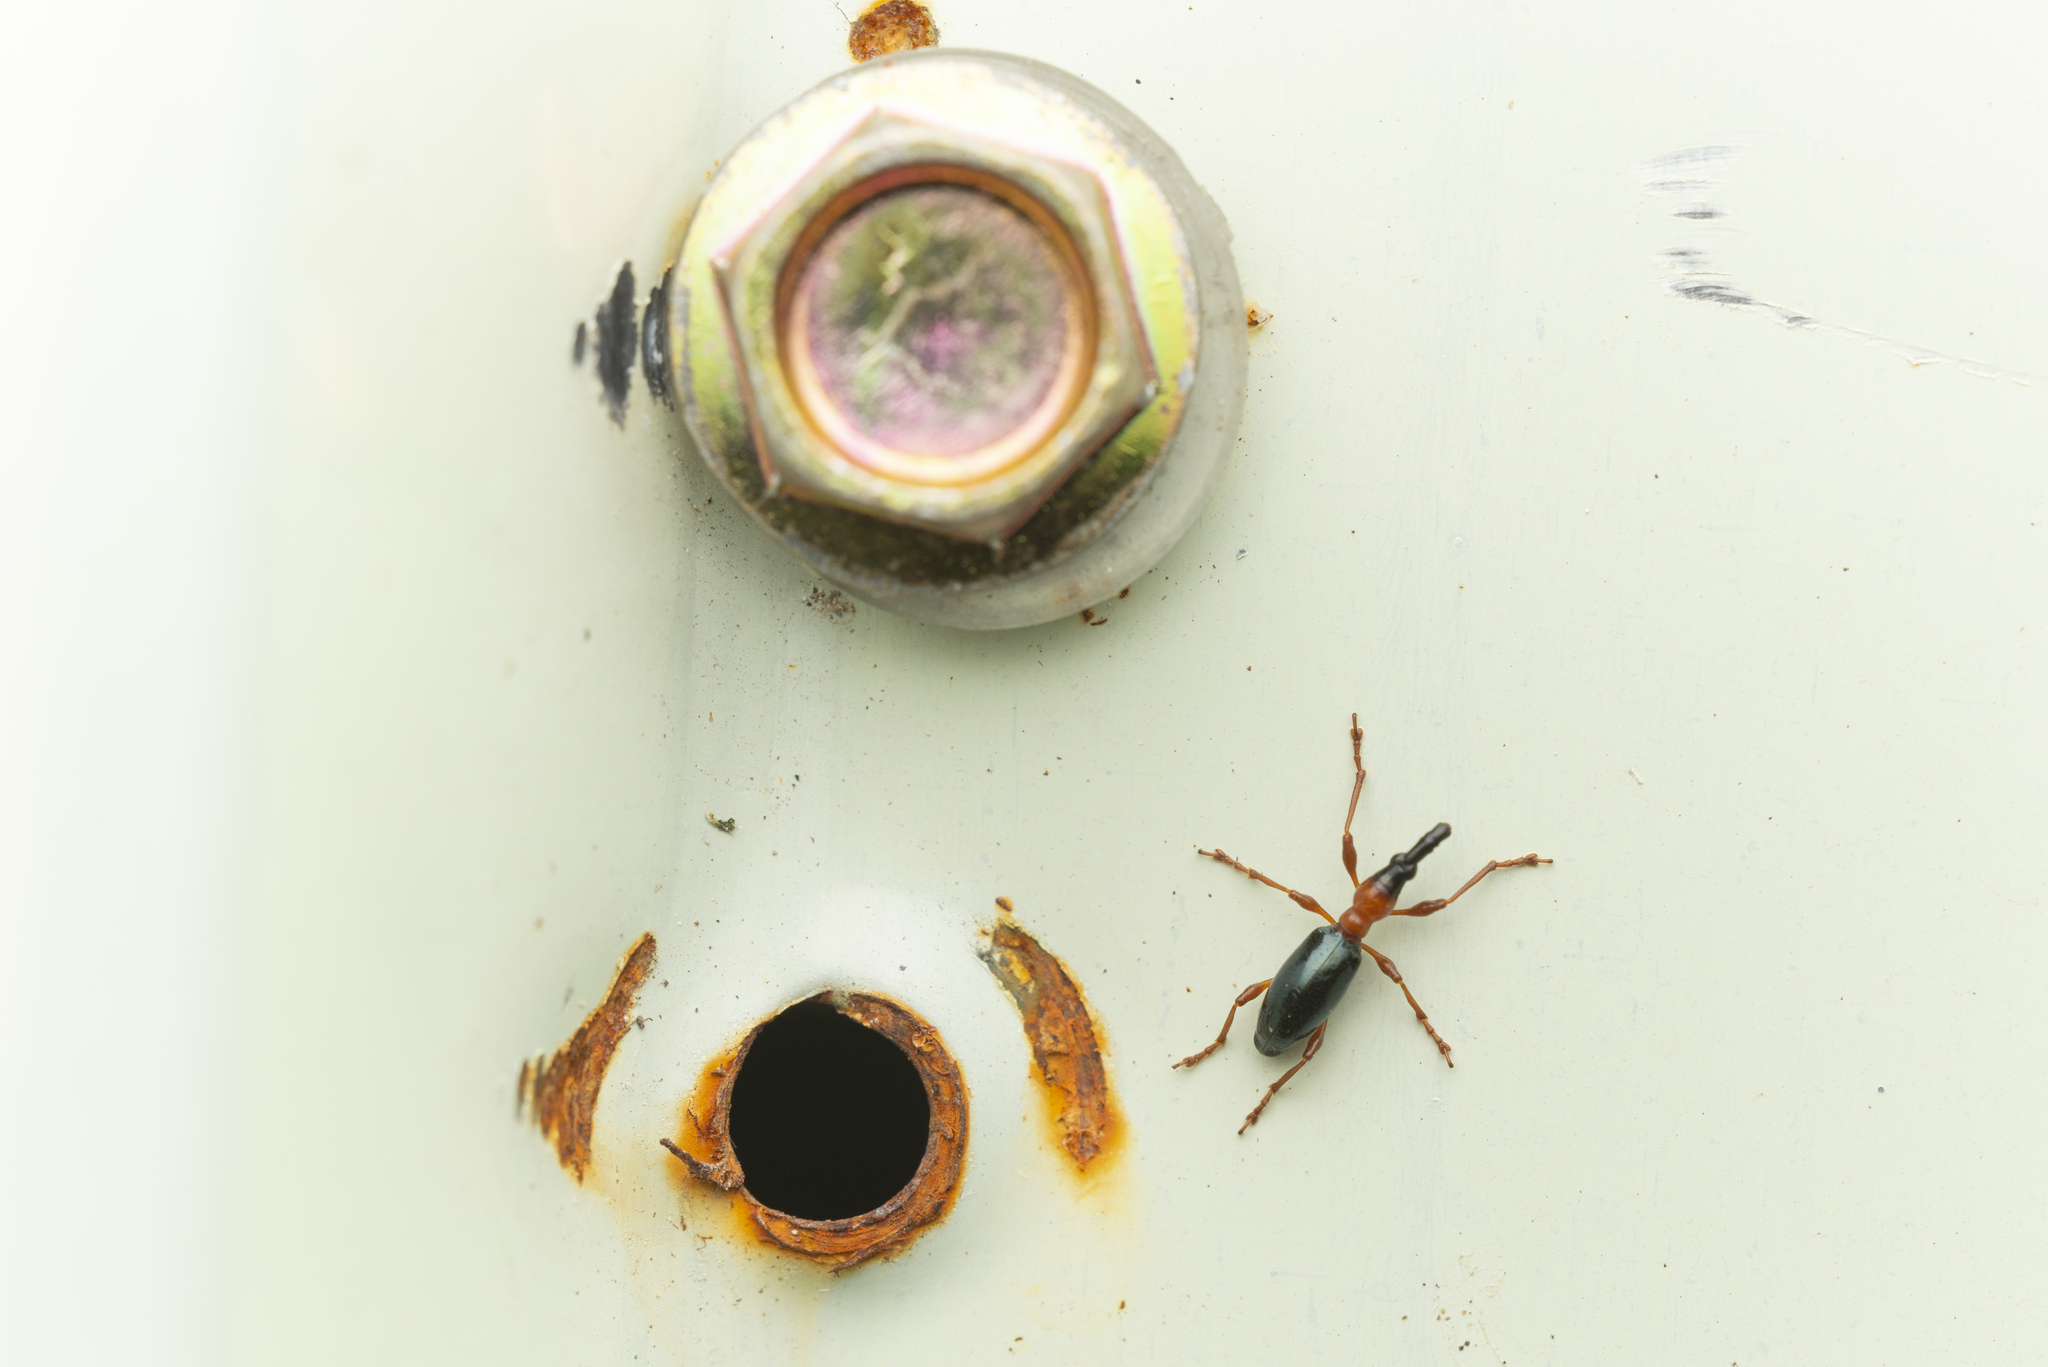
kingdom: Animalia
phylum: Arthropoda
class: Insecta
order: Coleoptera
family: Brentidae
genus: Cylas
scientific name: Cylas formicarius
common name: Sweetpotato weevil
